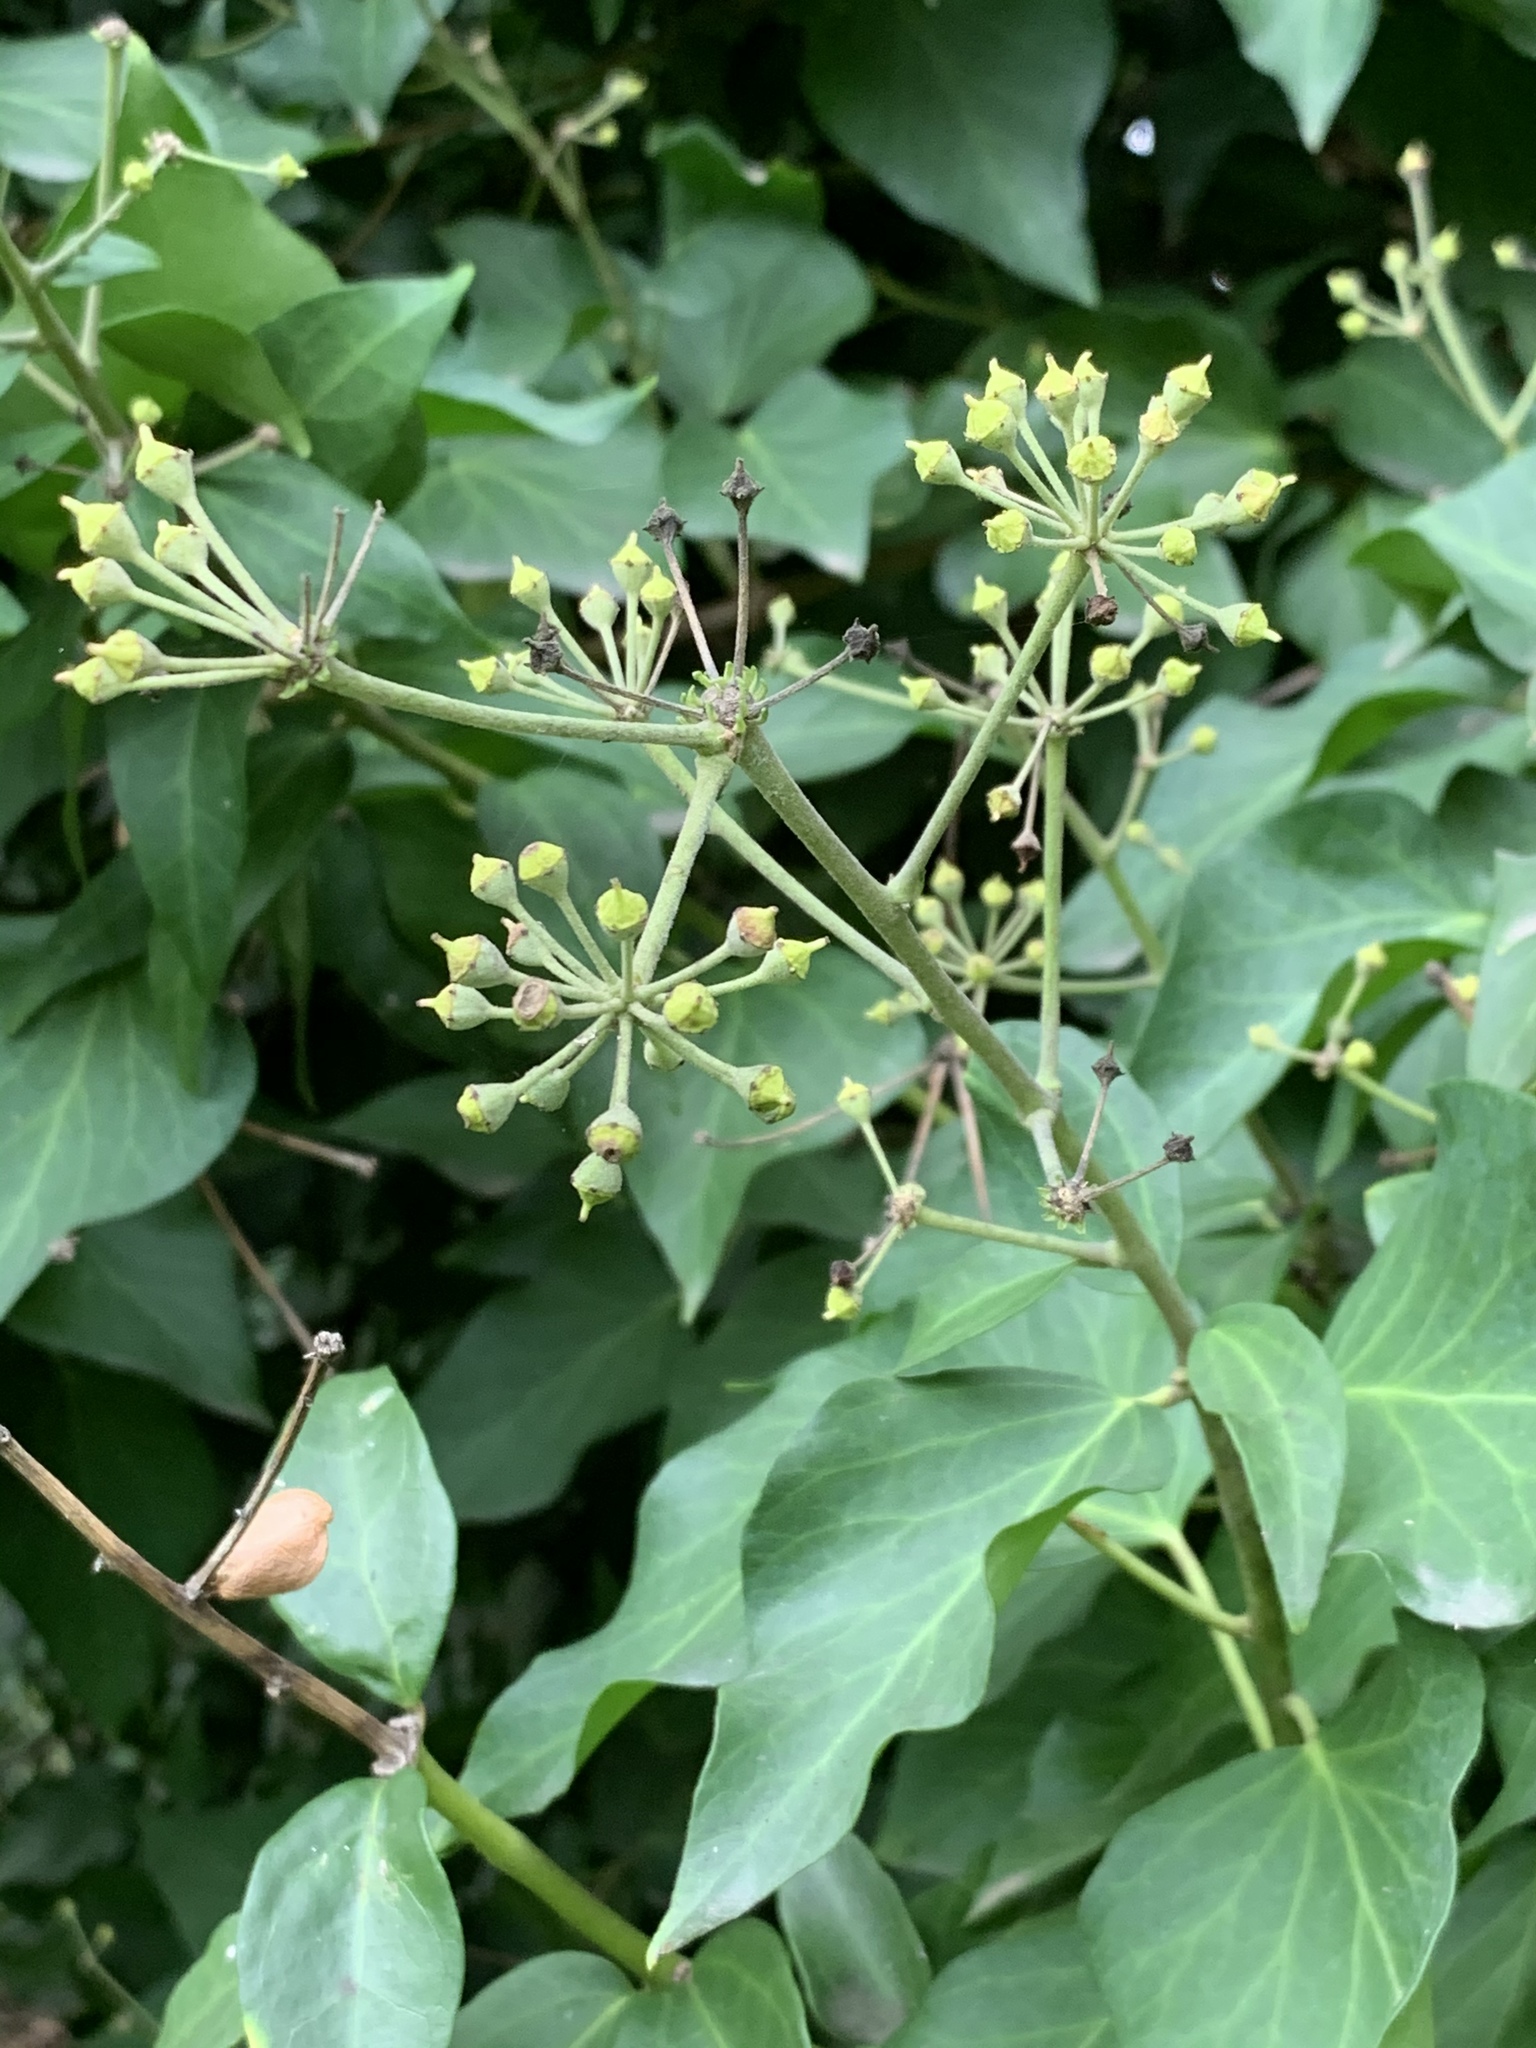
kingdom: Plantae
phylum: Tracheophyta
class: Magnoliopsida
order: Apiales
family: Araliaceae
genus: Hedera
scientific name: Hedera canariensis
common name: Madeira ivy
